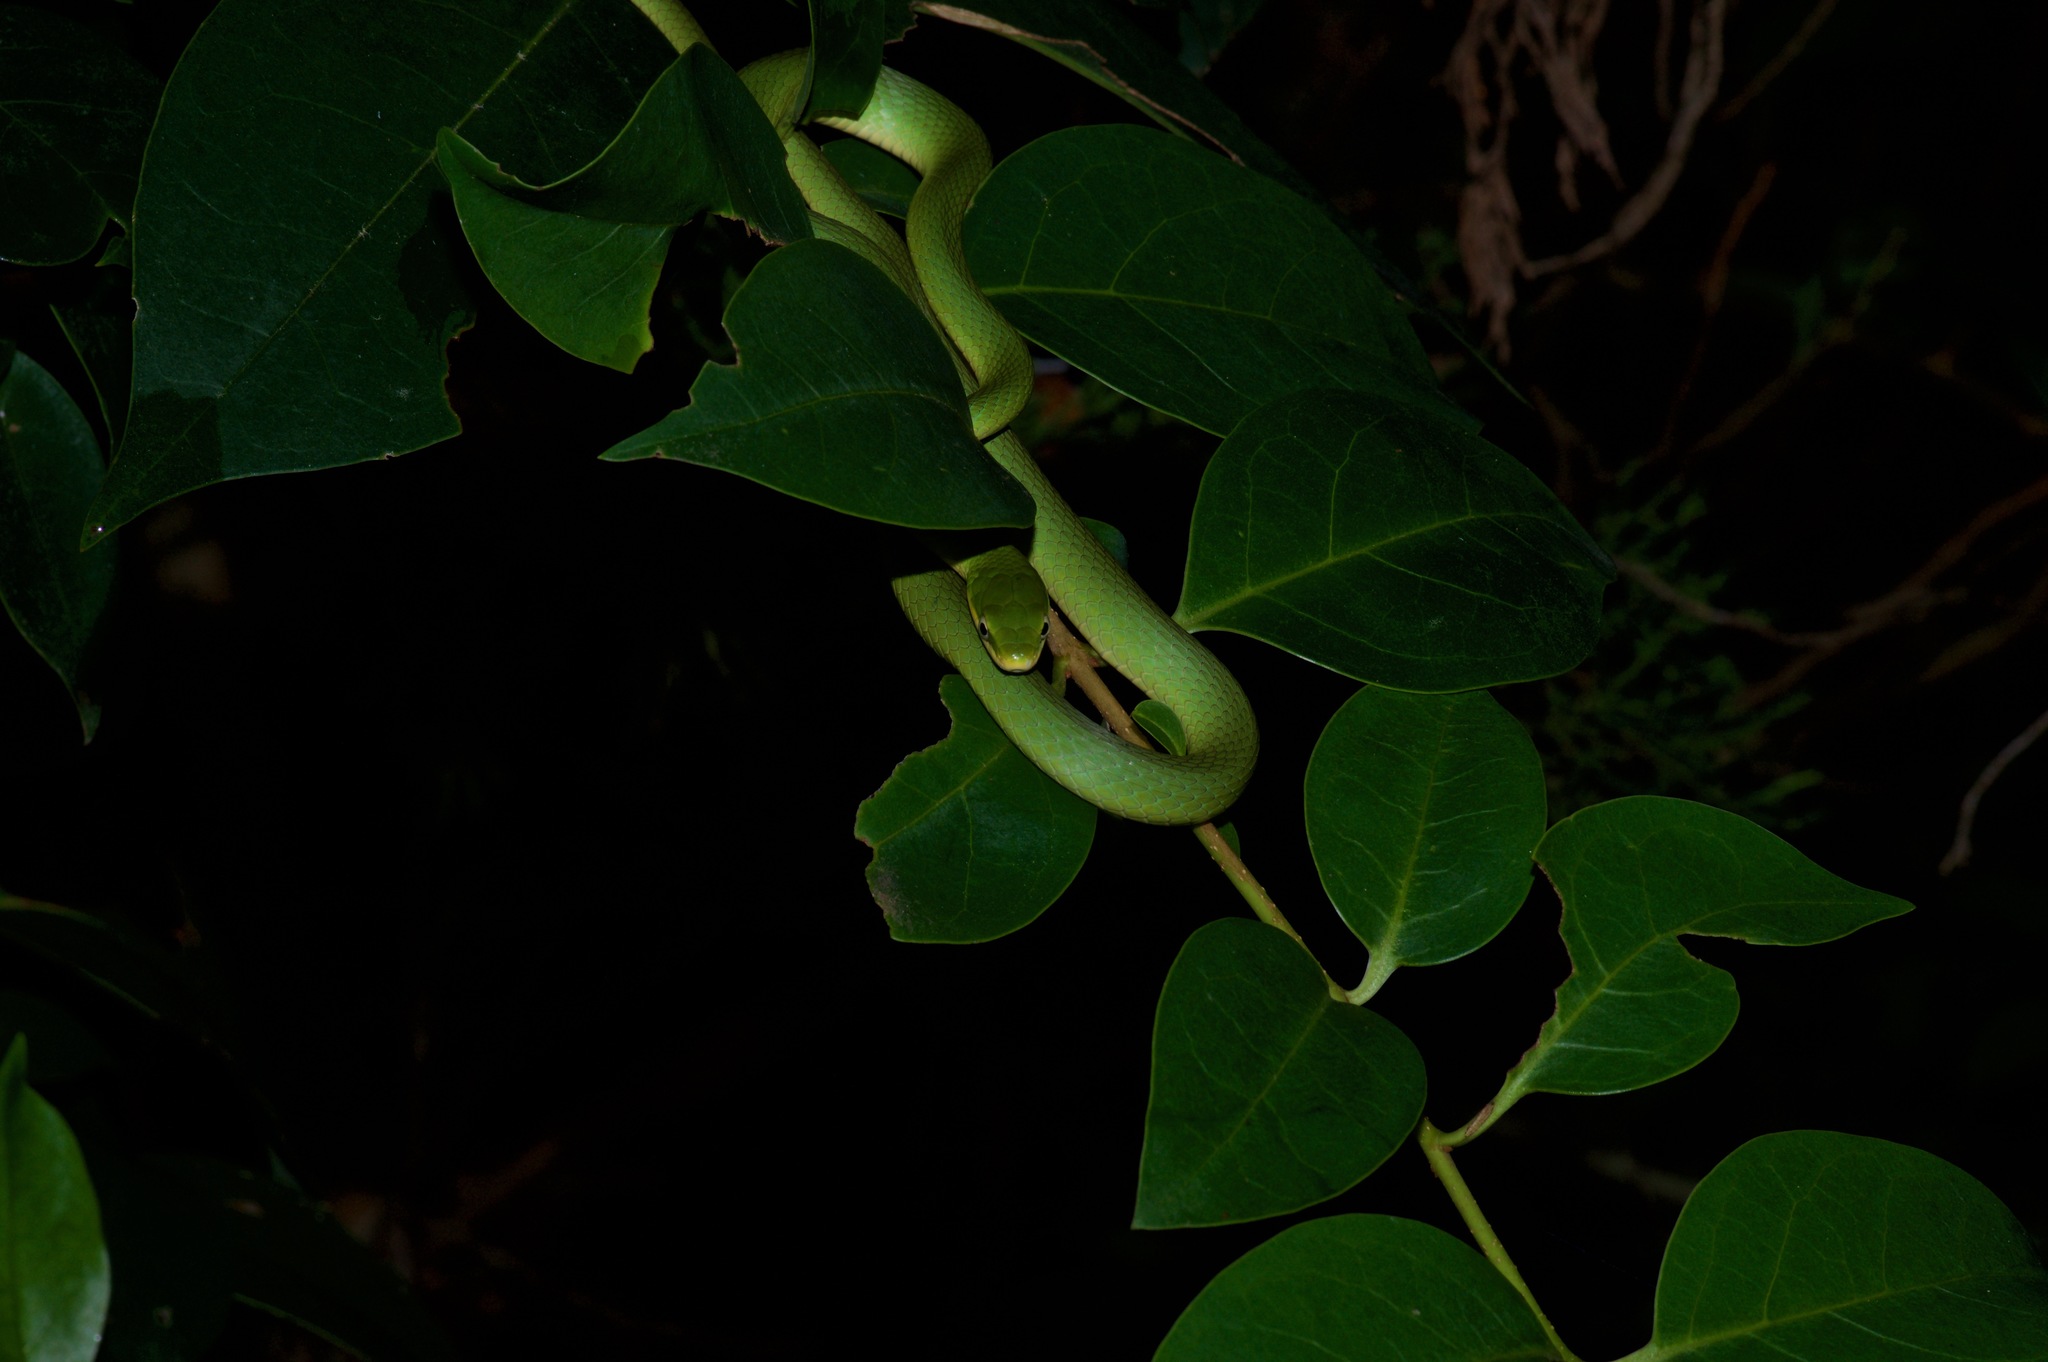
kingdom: Animalia
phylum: Chordata
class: Squamata
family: Colubridae
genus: Opheodrys
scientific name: Opheodrys aestivus
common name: Rough greensnake
